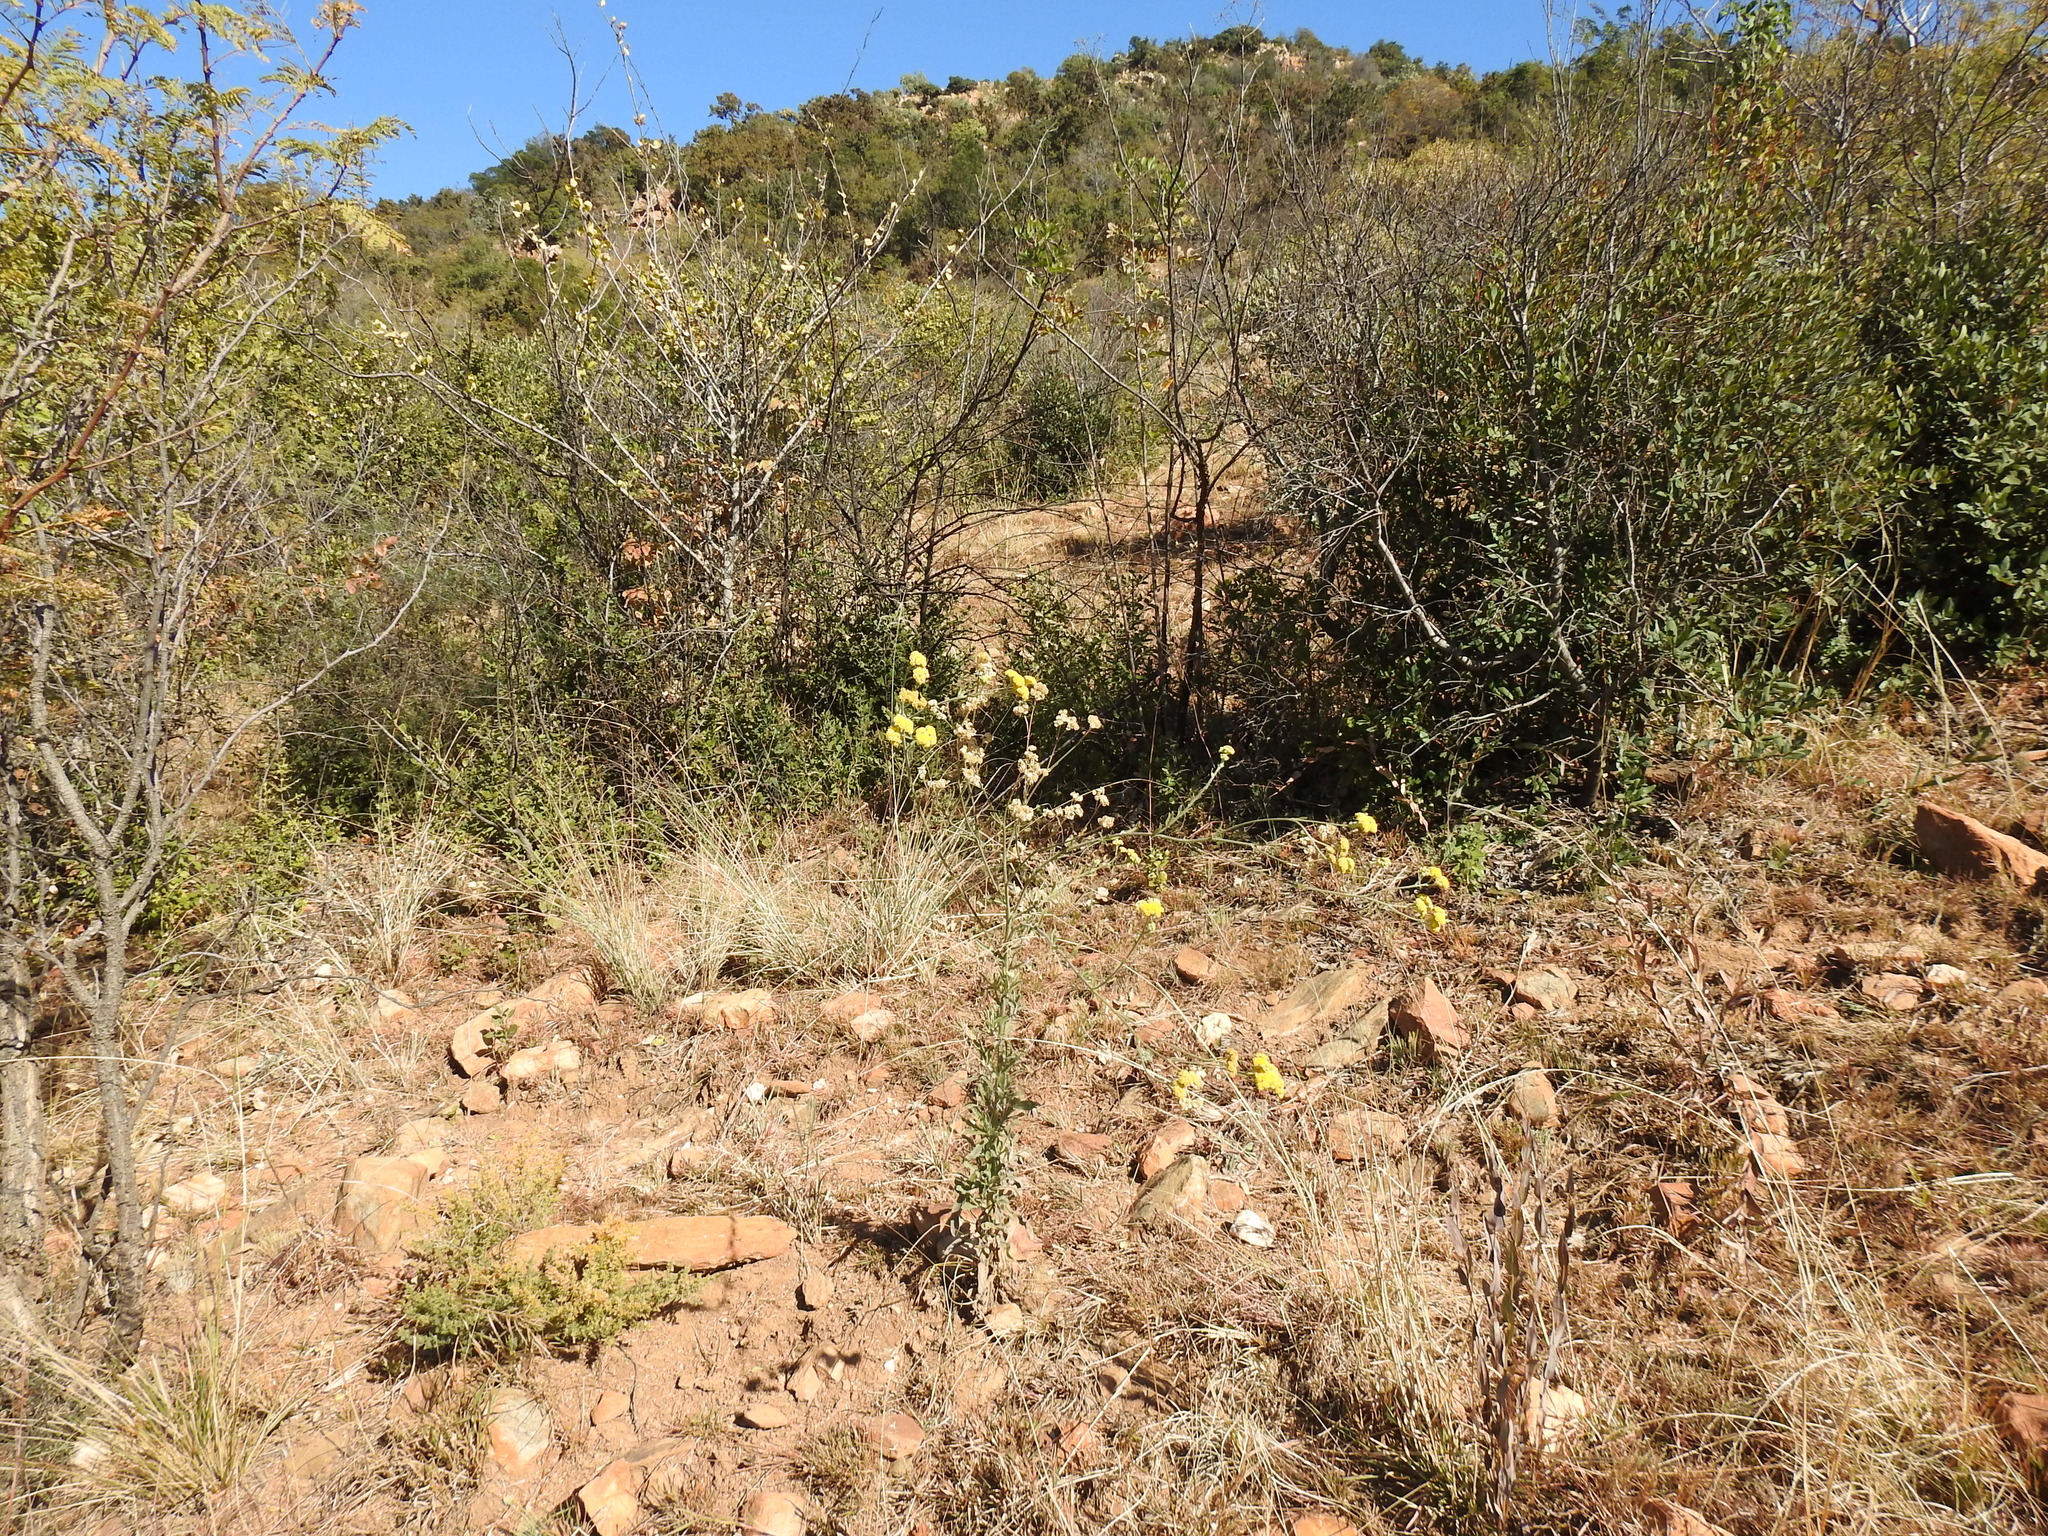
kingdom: Plantae
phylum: Tracheophyta
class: Magnoliopsida
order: Asterales
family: Asteraceae
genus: Nidorella
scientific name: Nidorella hottentotica
